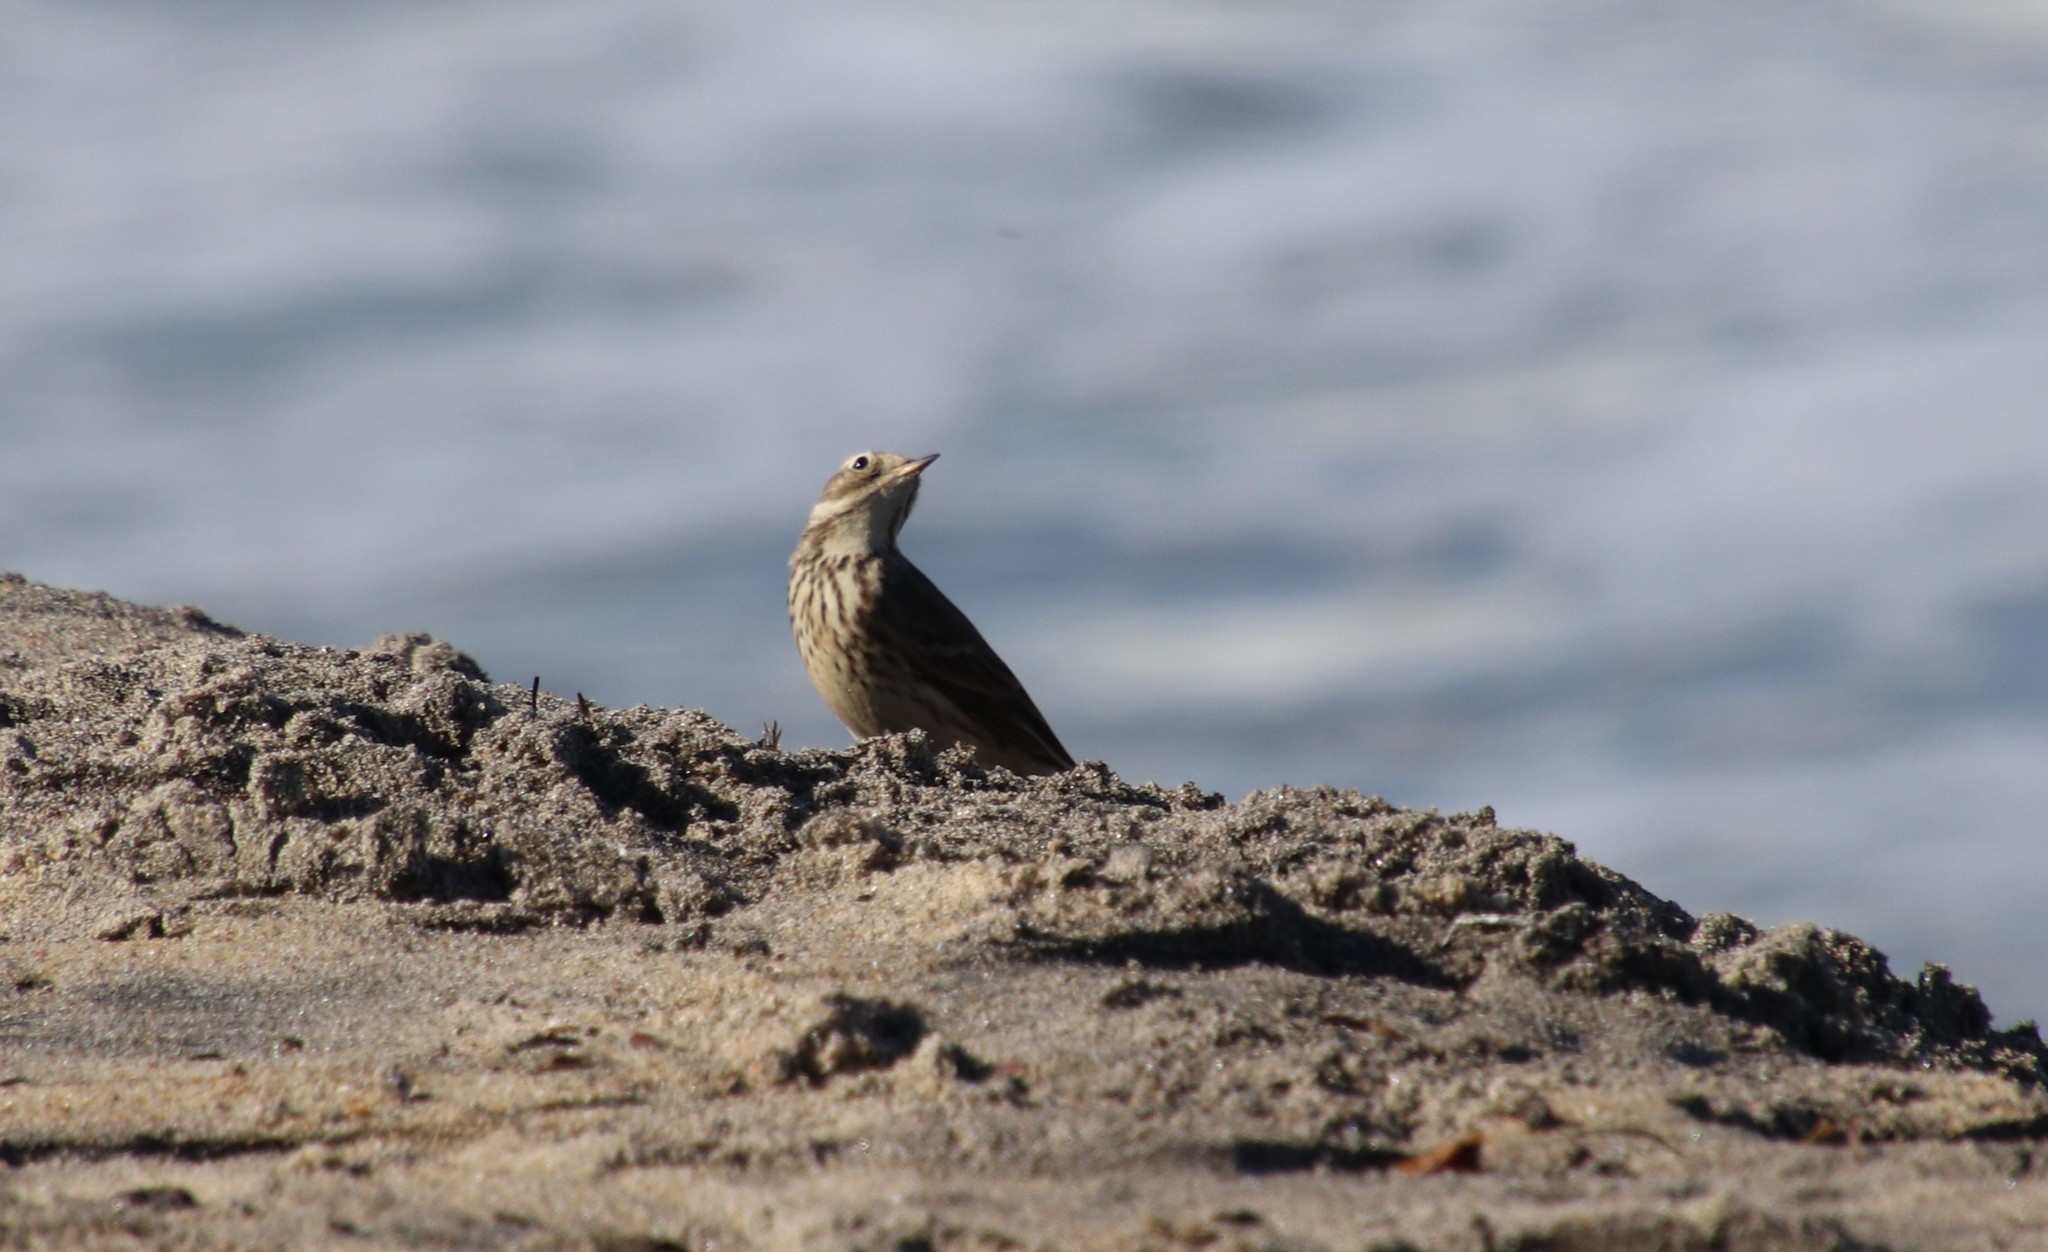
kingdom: Animalia
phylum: Chordata
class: Aves
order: Passeriformes
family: Motacillidae
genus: Anthus
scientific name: Anthus rubescens
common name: Buff-bellied pipit
